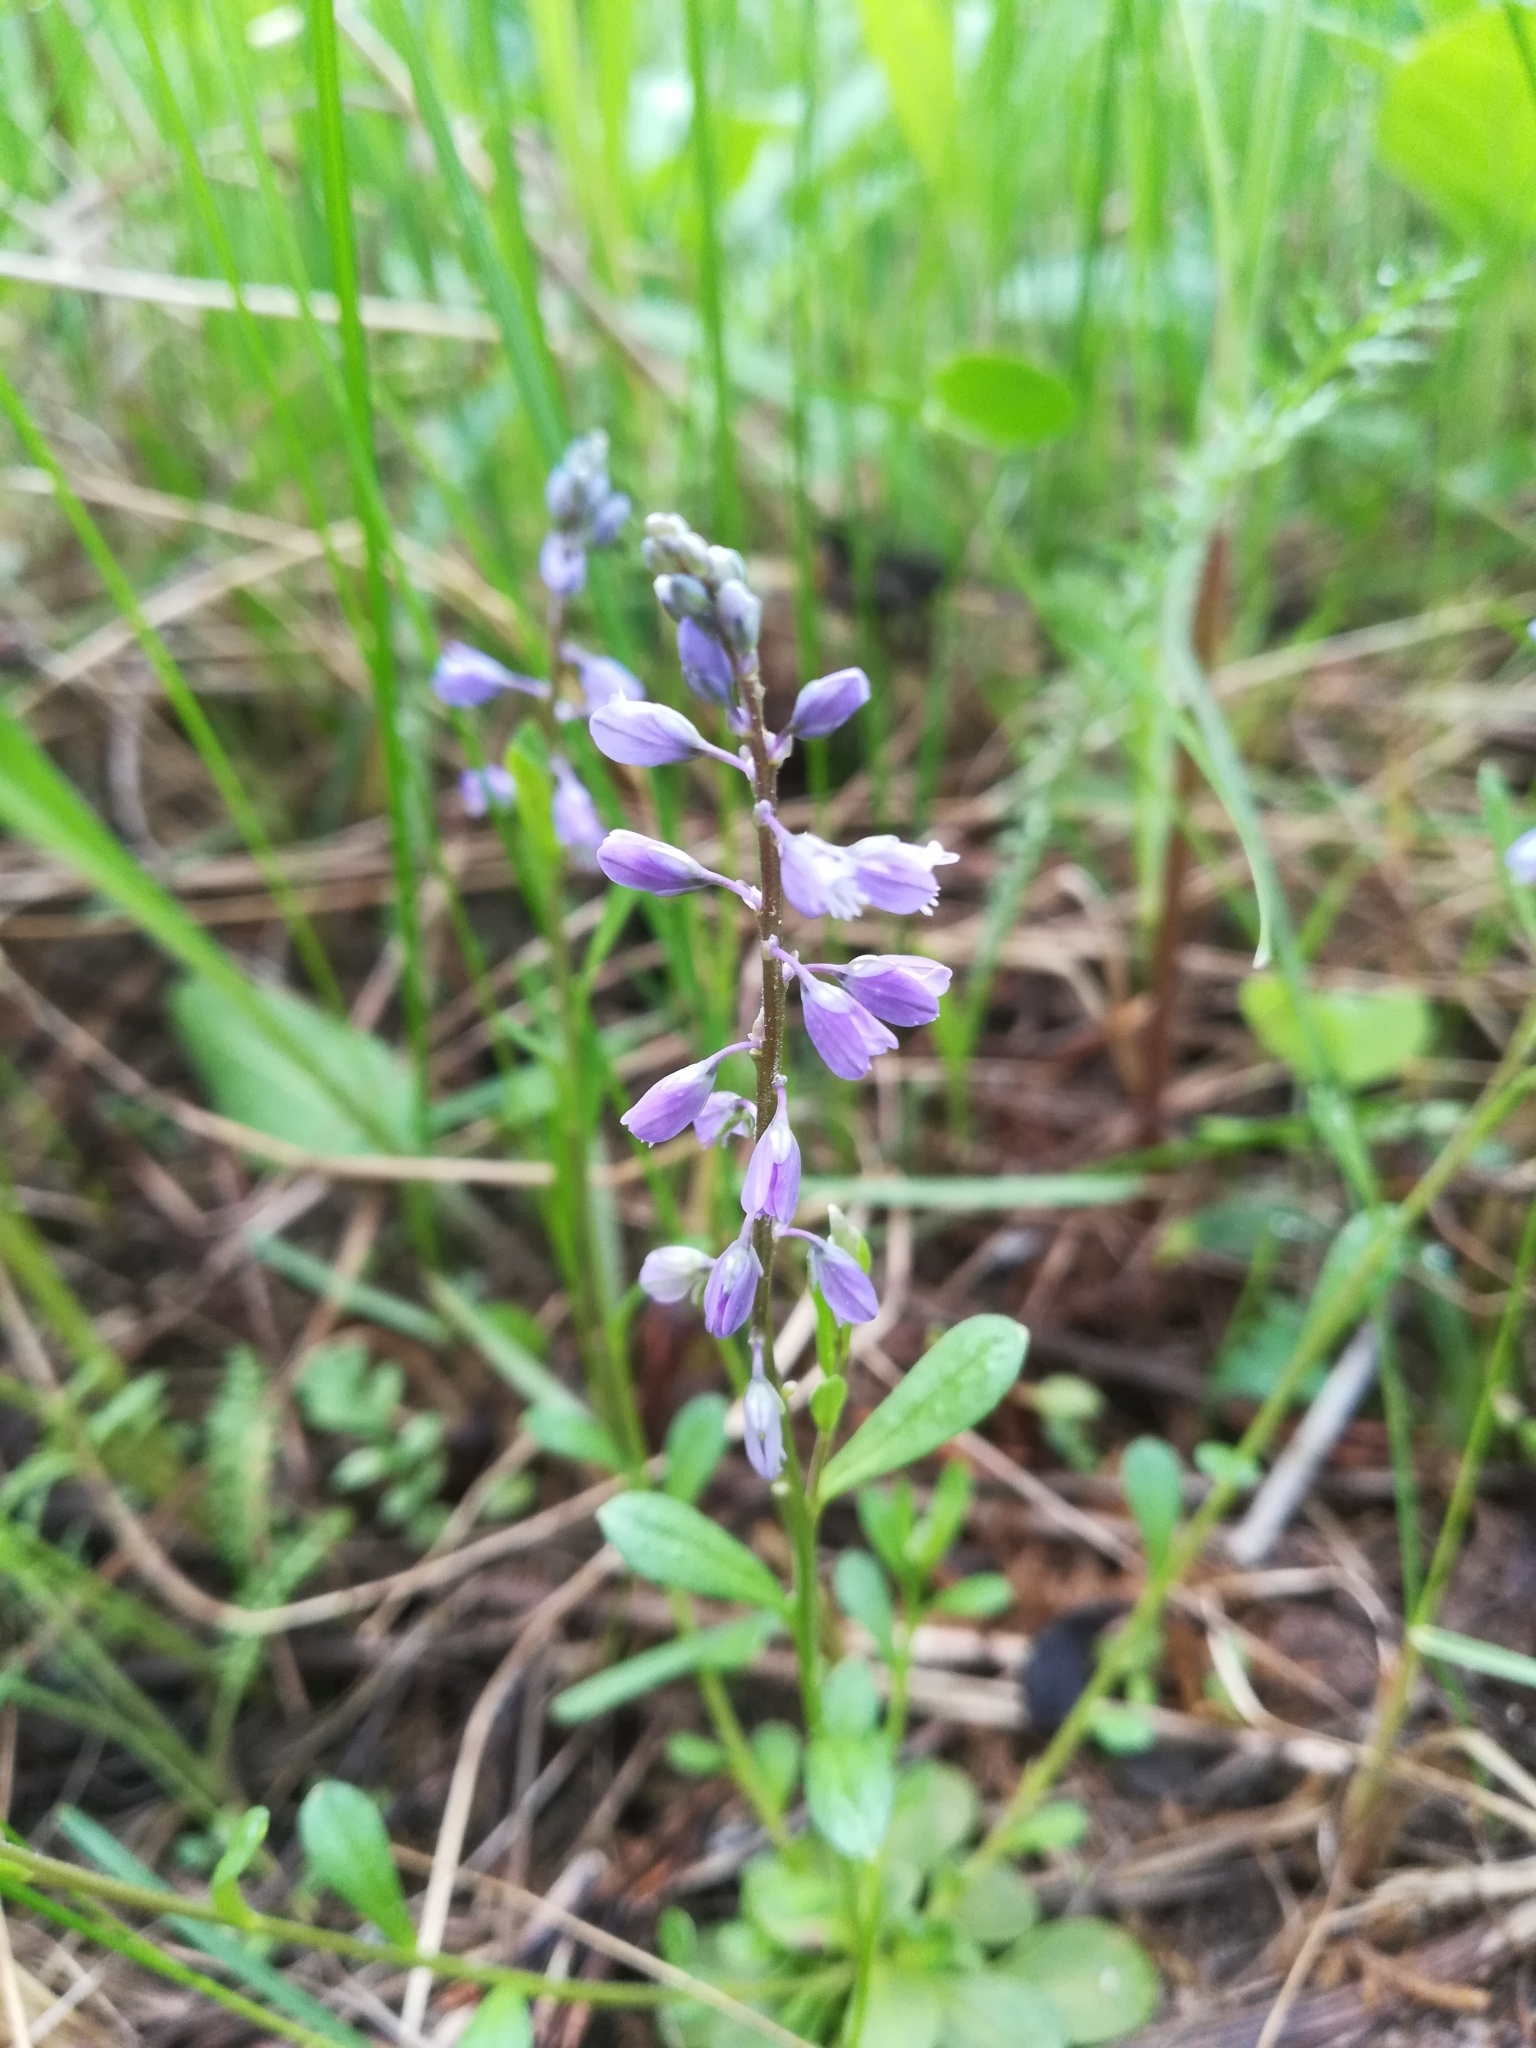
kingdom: Plantae
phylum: Tracheophyta
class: Magnoliopsida
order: Fabales
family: Polygalaceae
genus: Polygala
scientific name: Polygala amarella
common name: Dwarf milkwort
